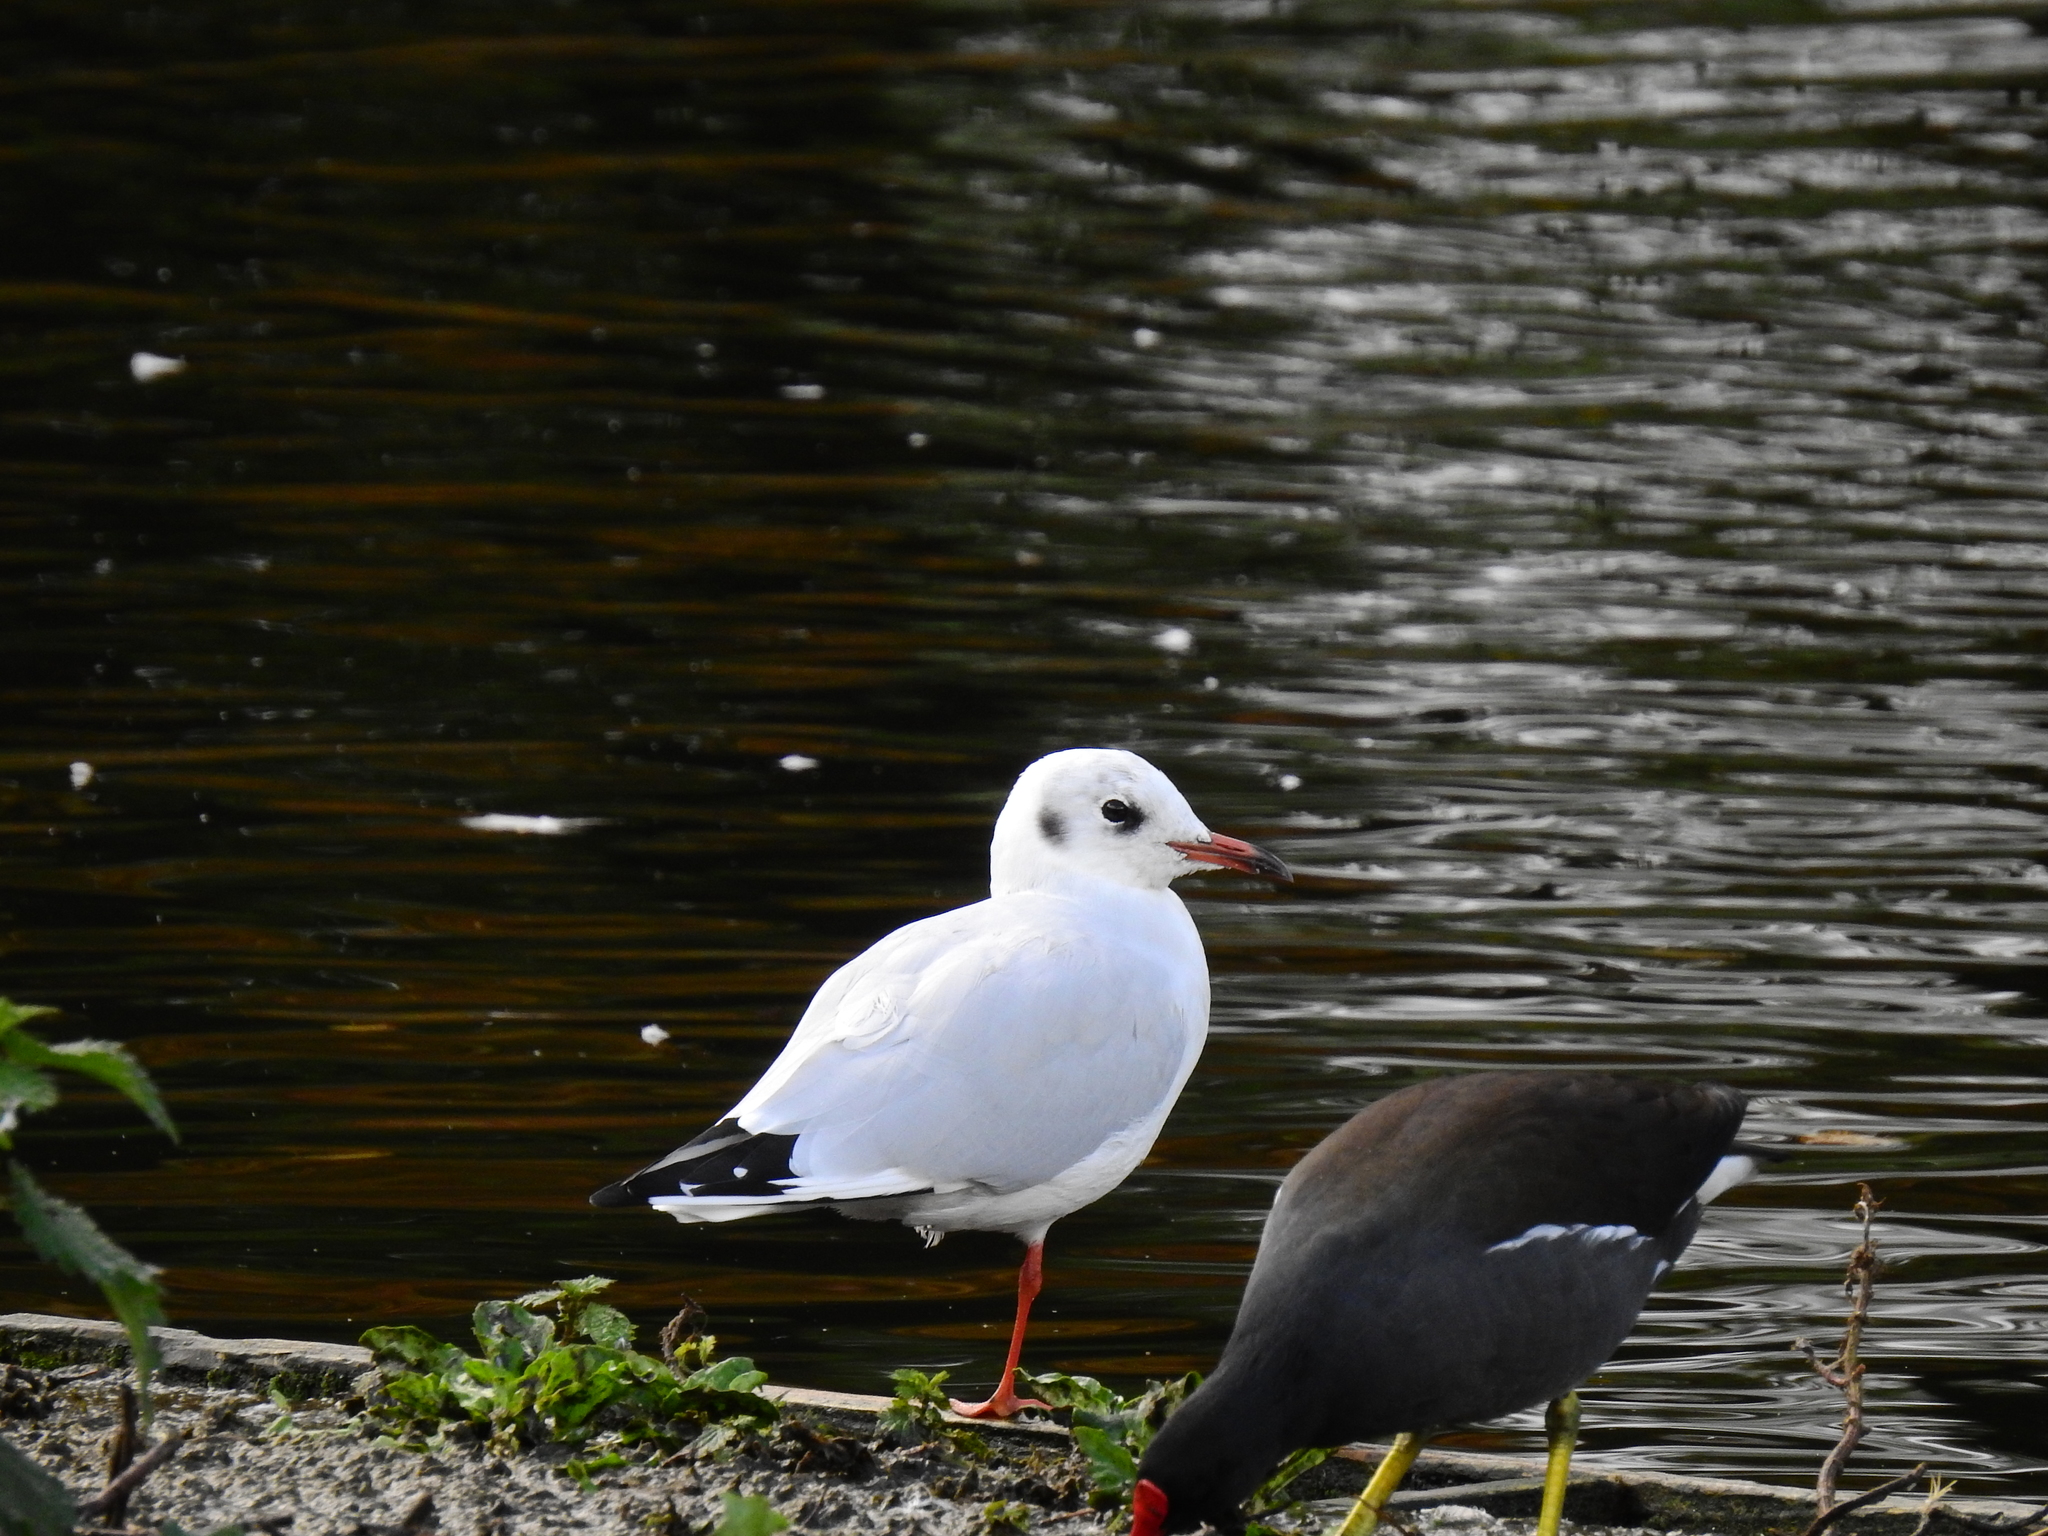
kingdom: Animalia
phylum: Chordata
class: Aves
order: Charadriiformes
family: Laridae
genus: Chroicocephalus
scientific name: Chroicocephalus ridibundus
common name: Black-headed gull
